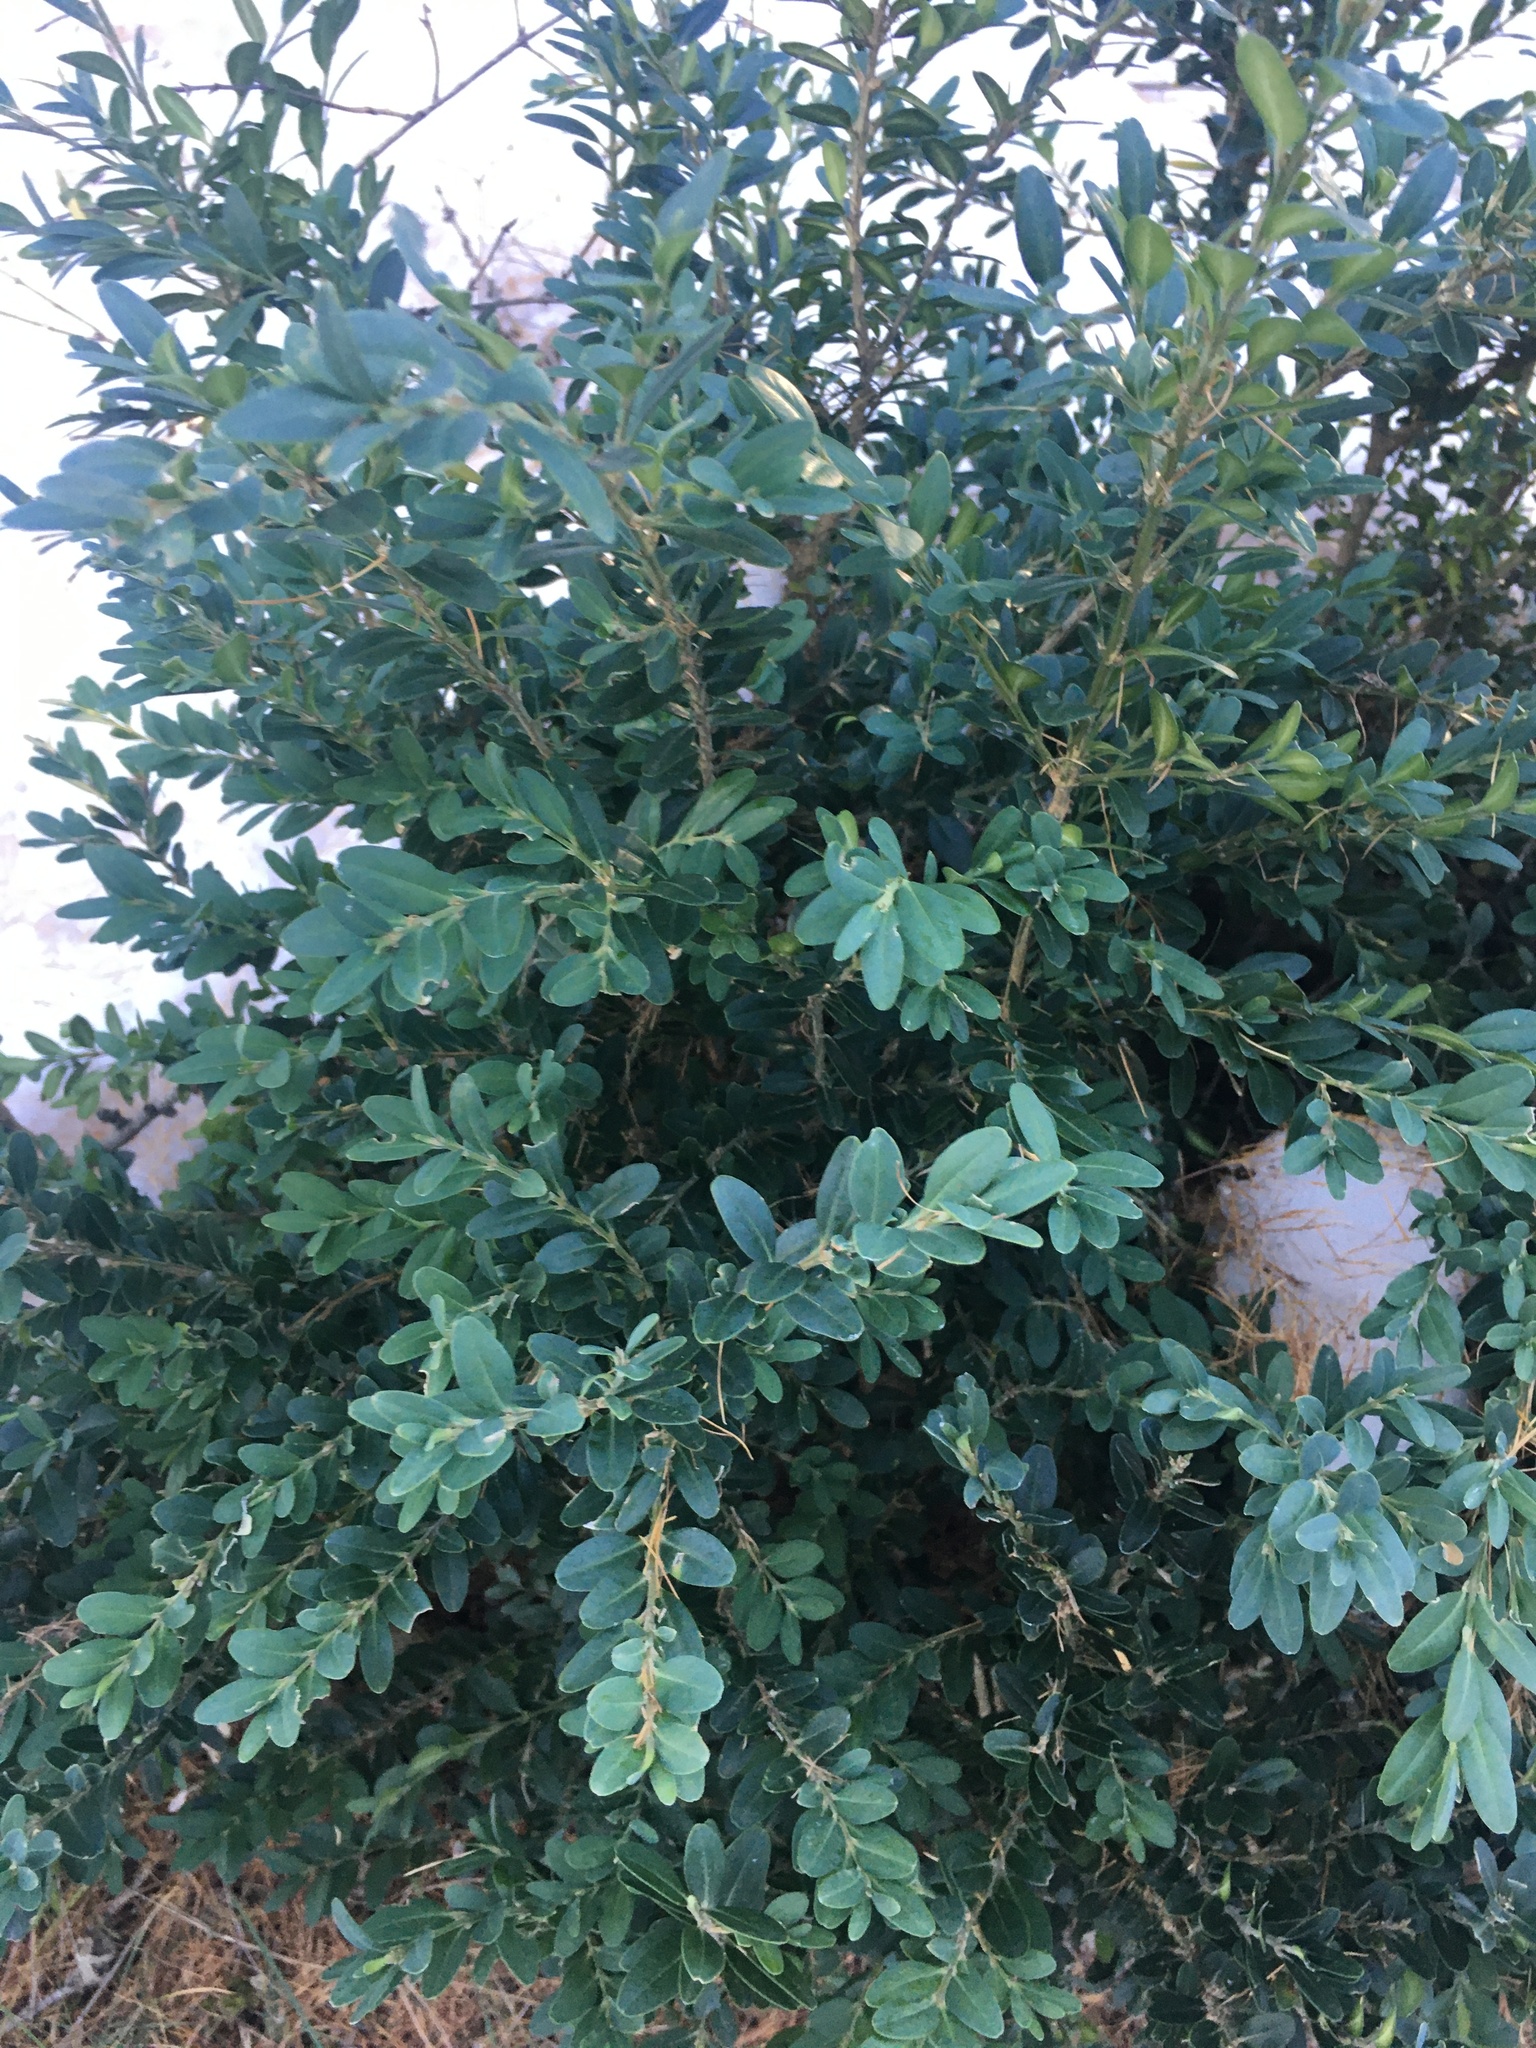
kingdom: Plantae
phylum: Tracheophyta
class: Magnoliopsida
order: Buxales
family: Buxaceae
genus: Buxus
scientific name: Buxus sempervirens
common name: Box
